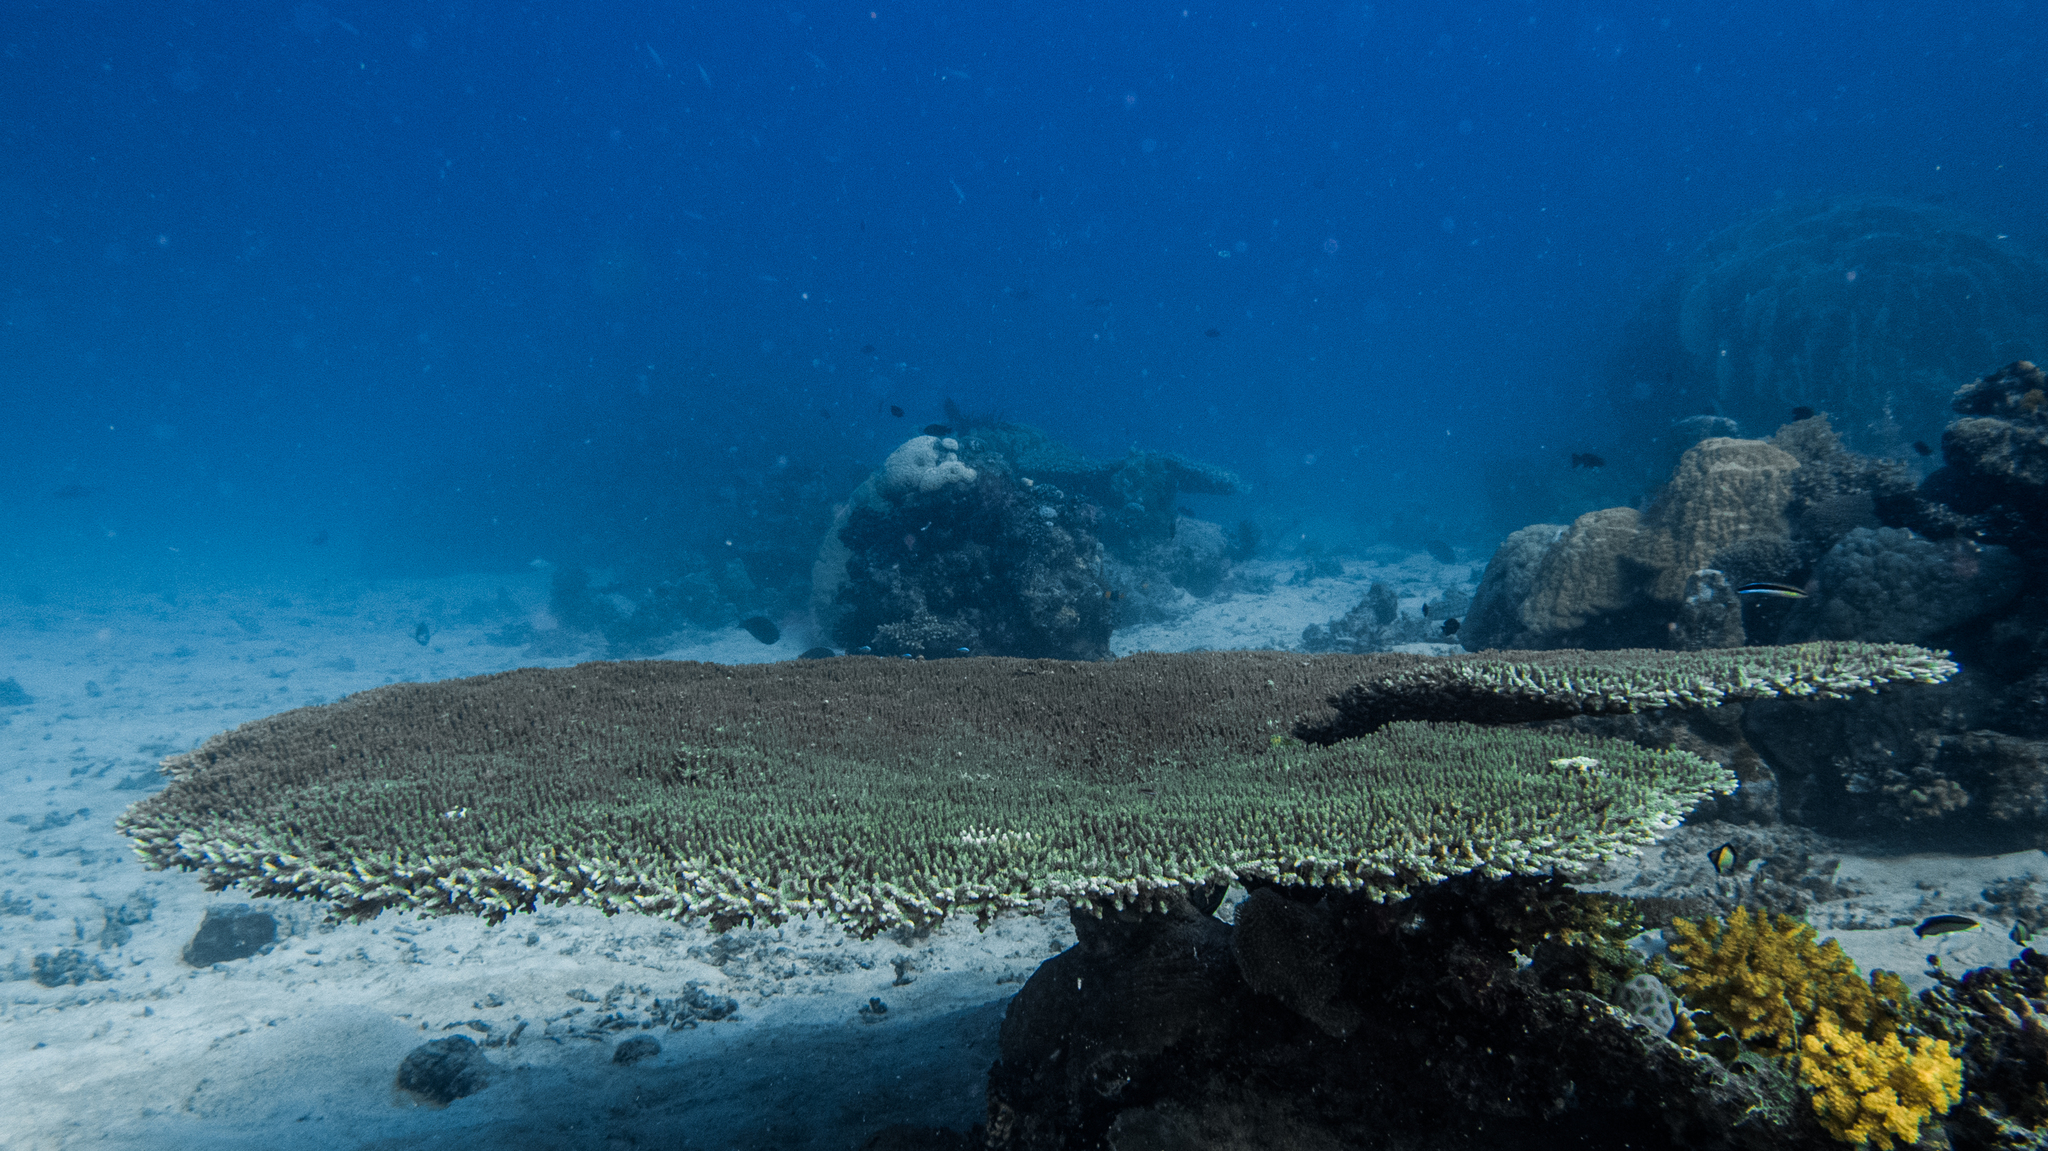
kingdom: Animalia
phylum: Cnidaria
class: Anthozoa
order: Scleractinia
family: Acroporidae
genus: Acropora
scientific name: Acropora cytherea
